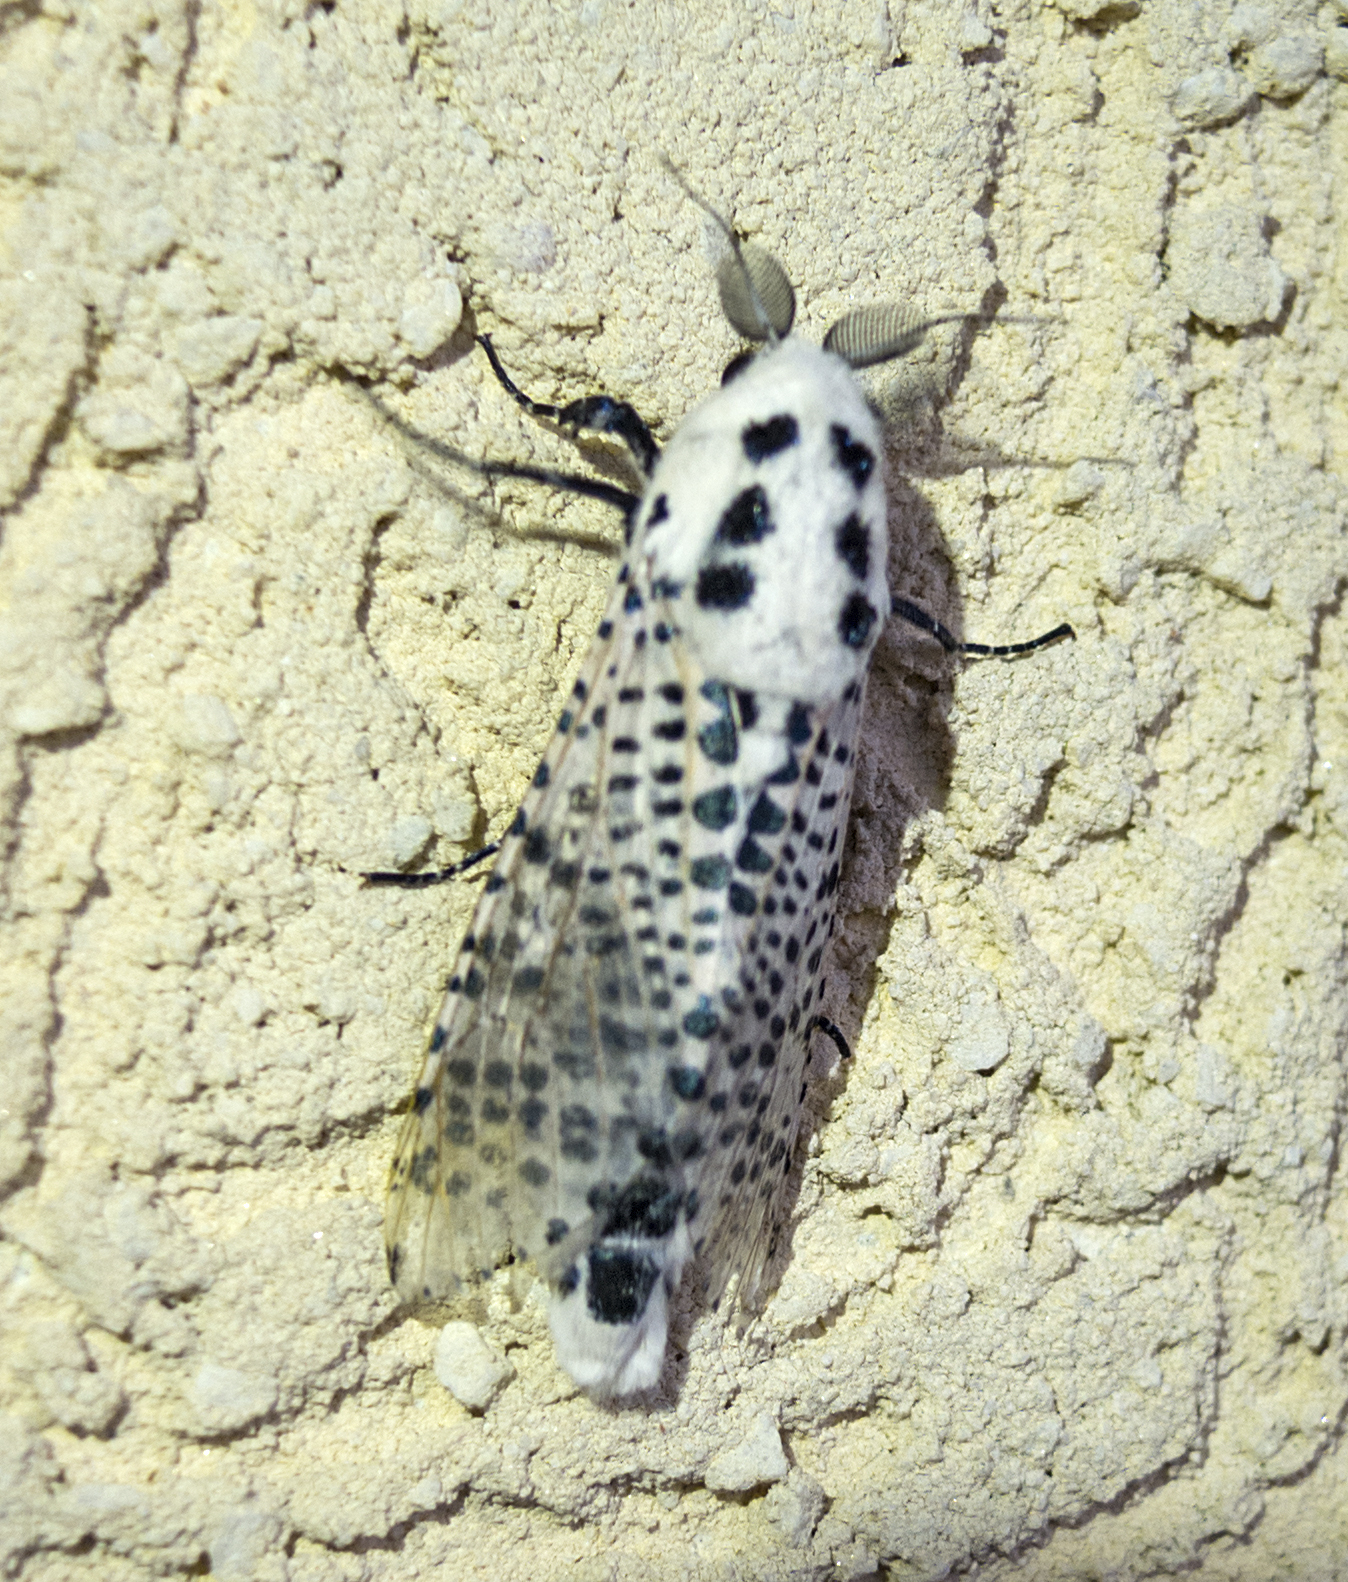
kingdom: Animalia
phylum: Arthropoda
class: Insecta
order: Lepidoptera
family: Cossidae
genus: Zeuzera
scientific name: Zeuzera pyrina
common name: Leopard moth
